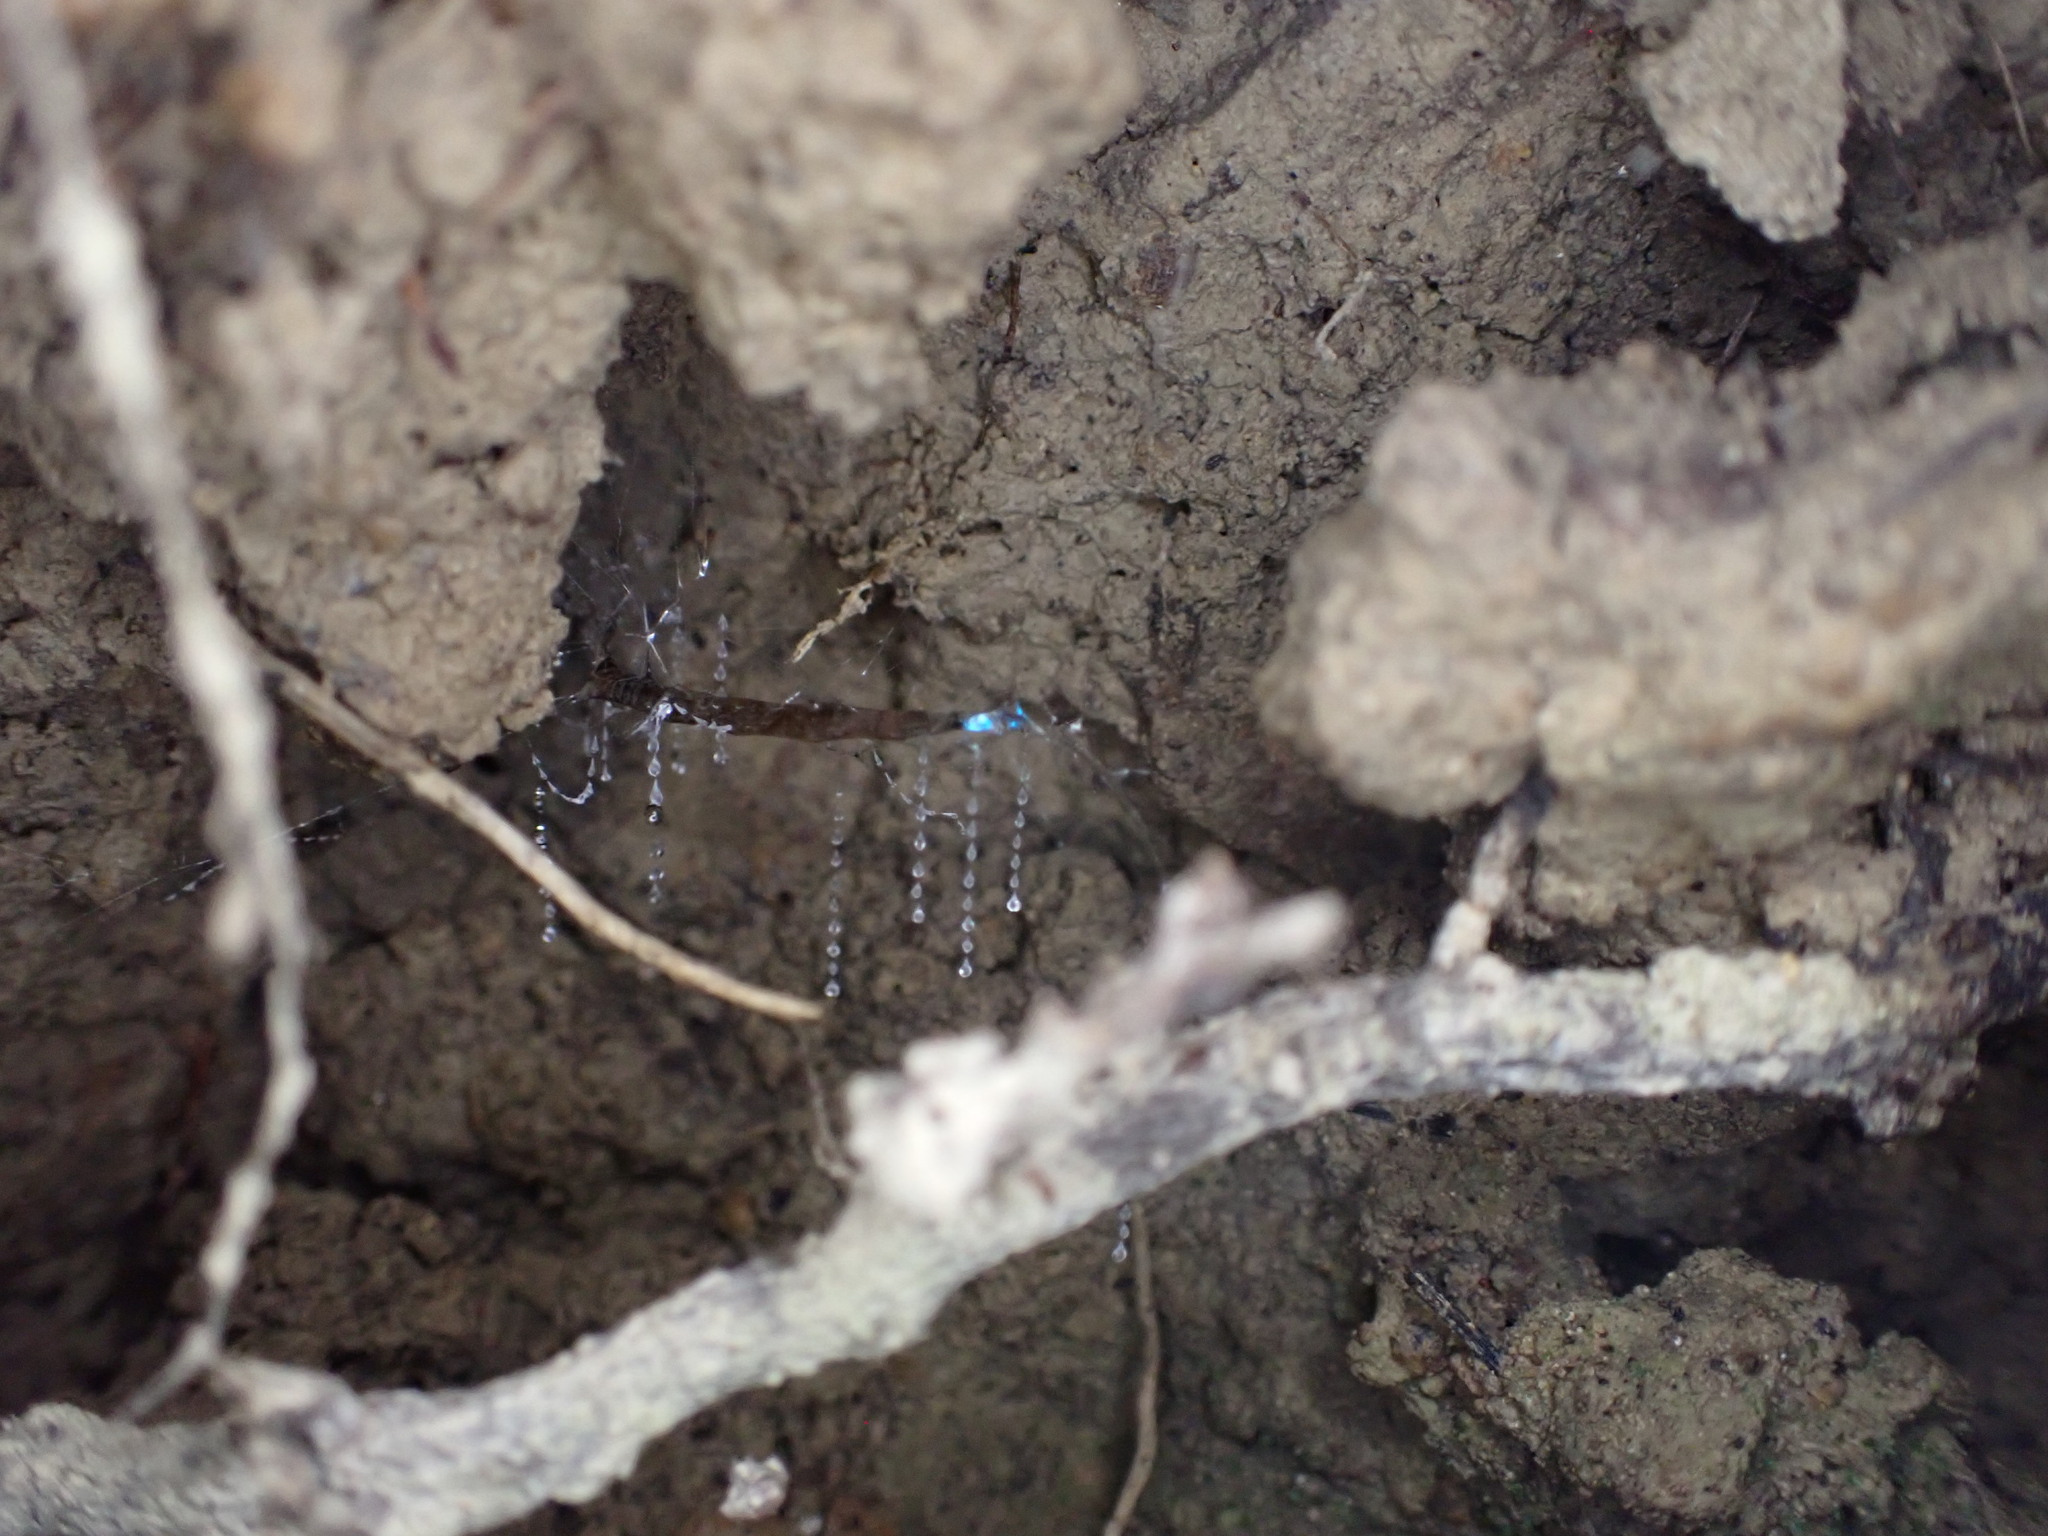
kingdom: Animalia
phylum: Arthropoda
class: Insecta
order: Diptera
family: Keroplatidae
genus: Arachnocampa
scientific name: Arachnocampa luminosa
